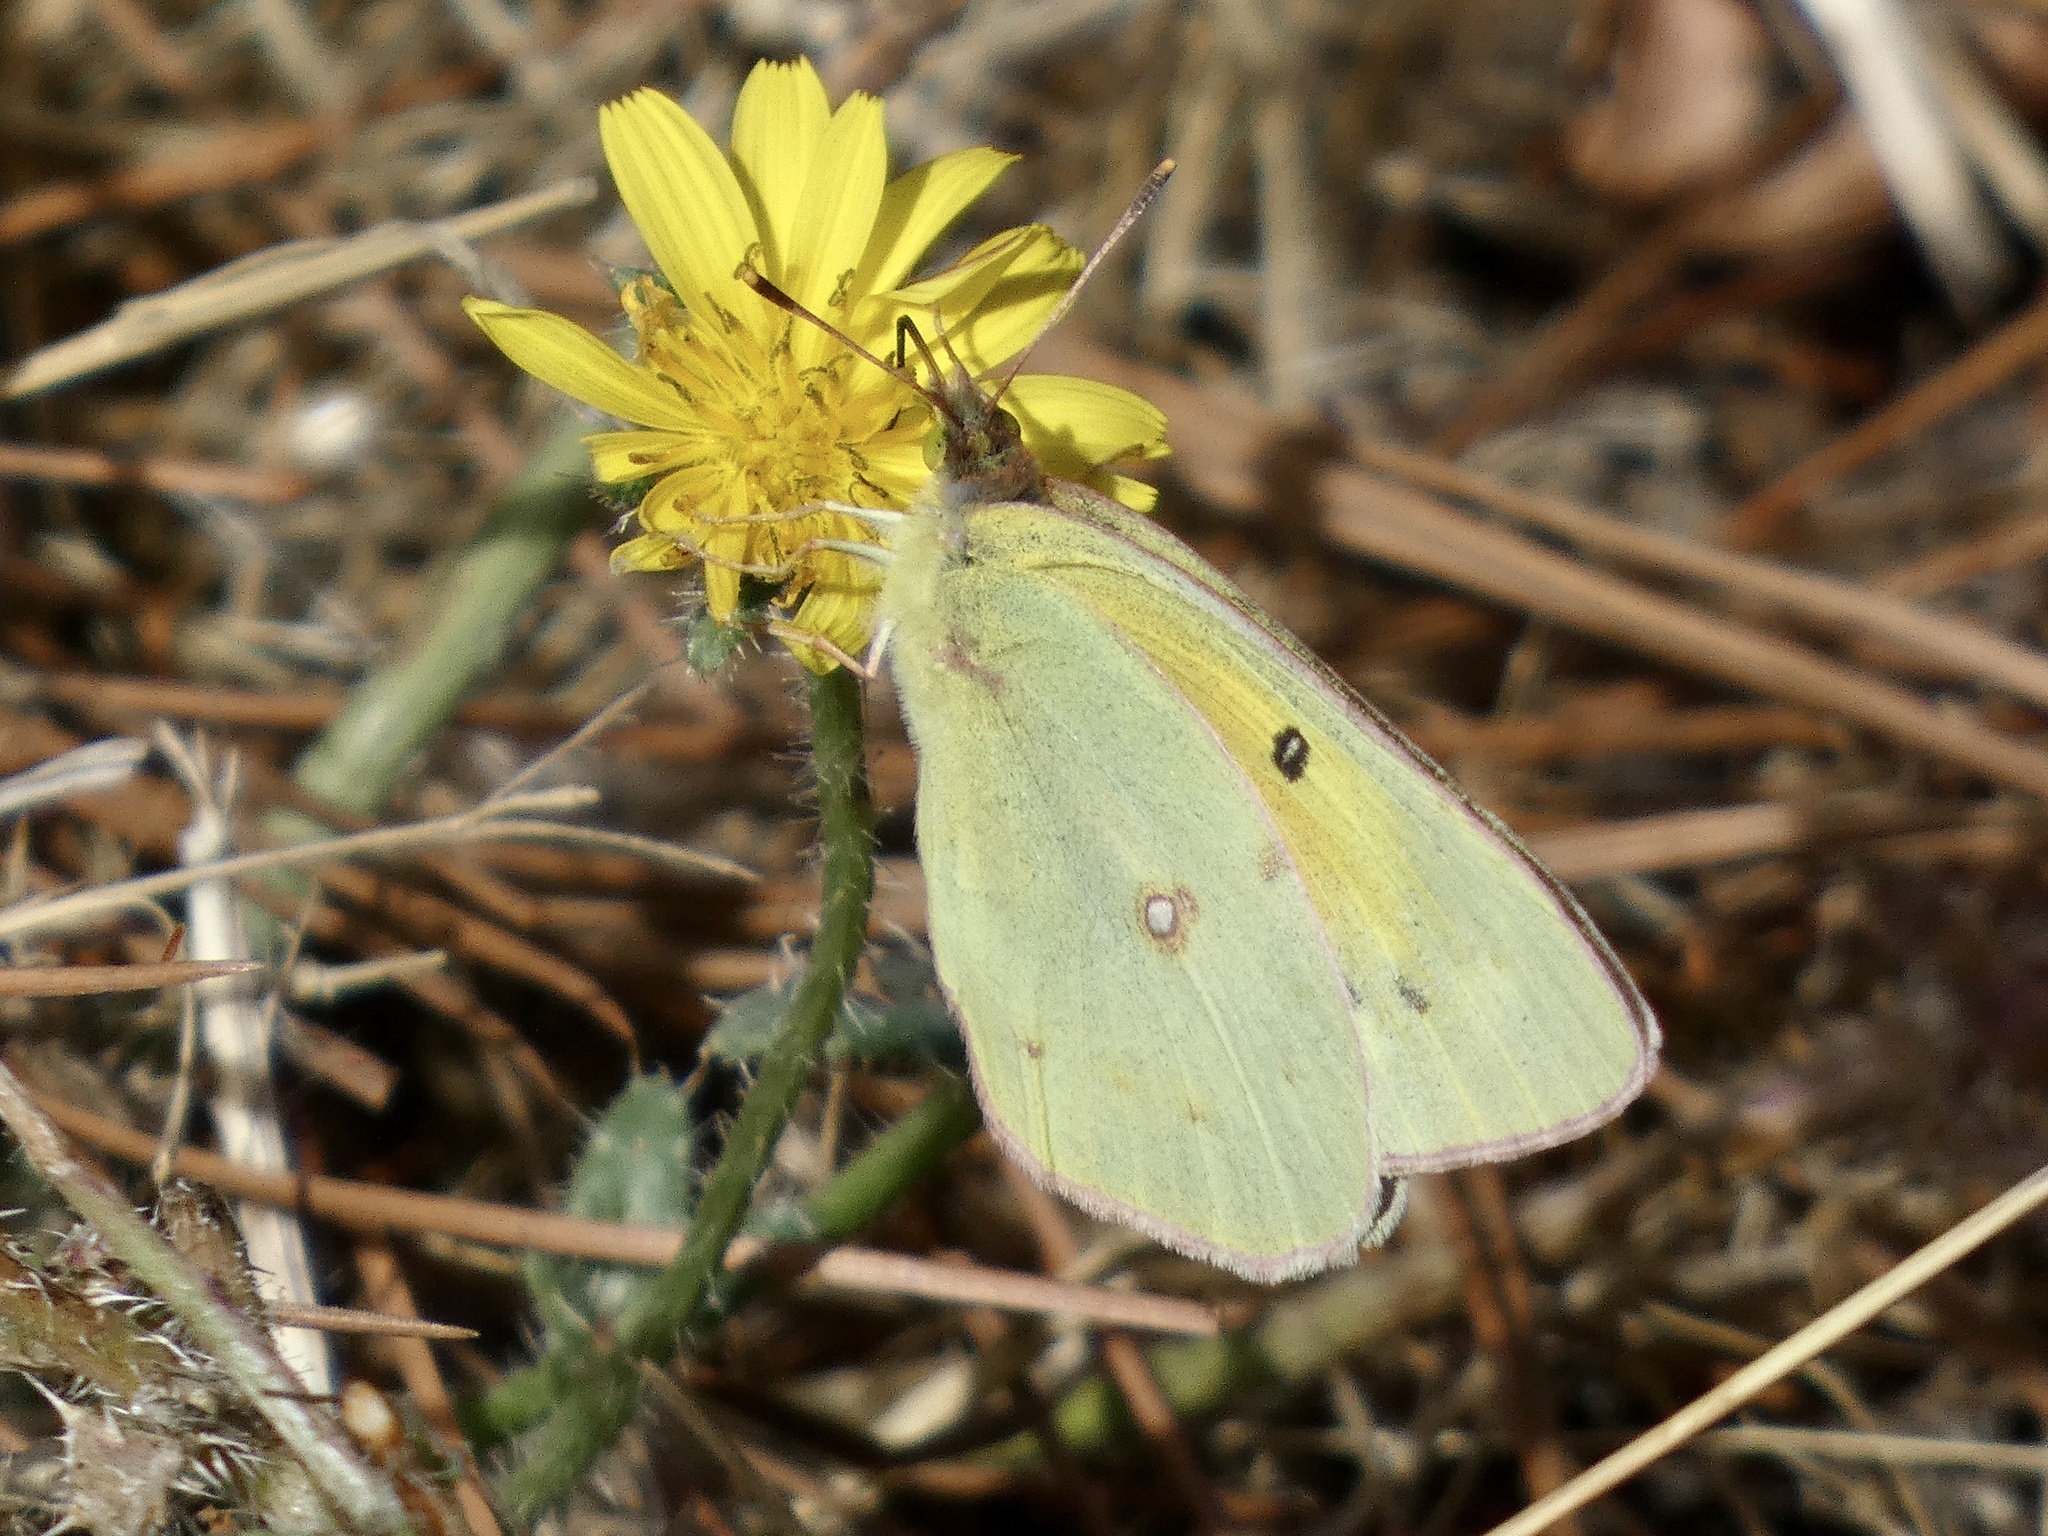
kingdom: Animalia
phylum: Arthropoda
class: Insecta
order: Lepidoptera
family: Pieridae
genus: Colias
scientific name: Colias eurytheme
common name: Alfalfa butterfly
